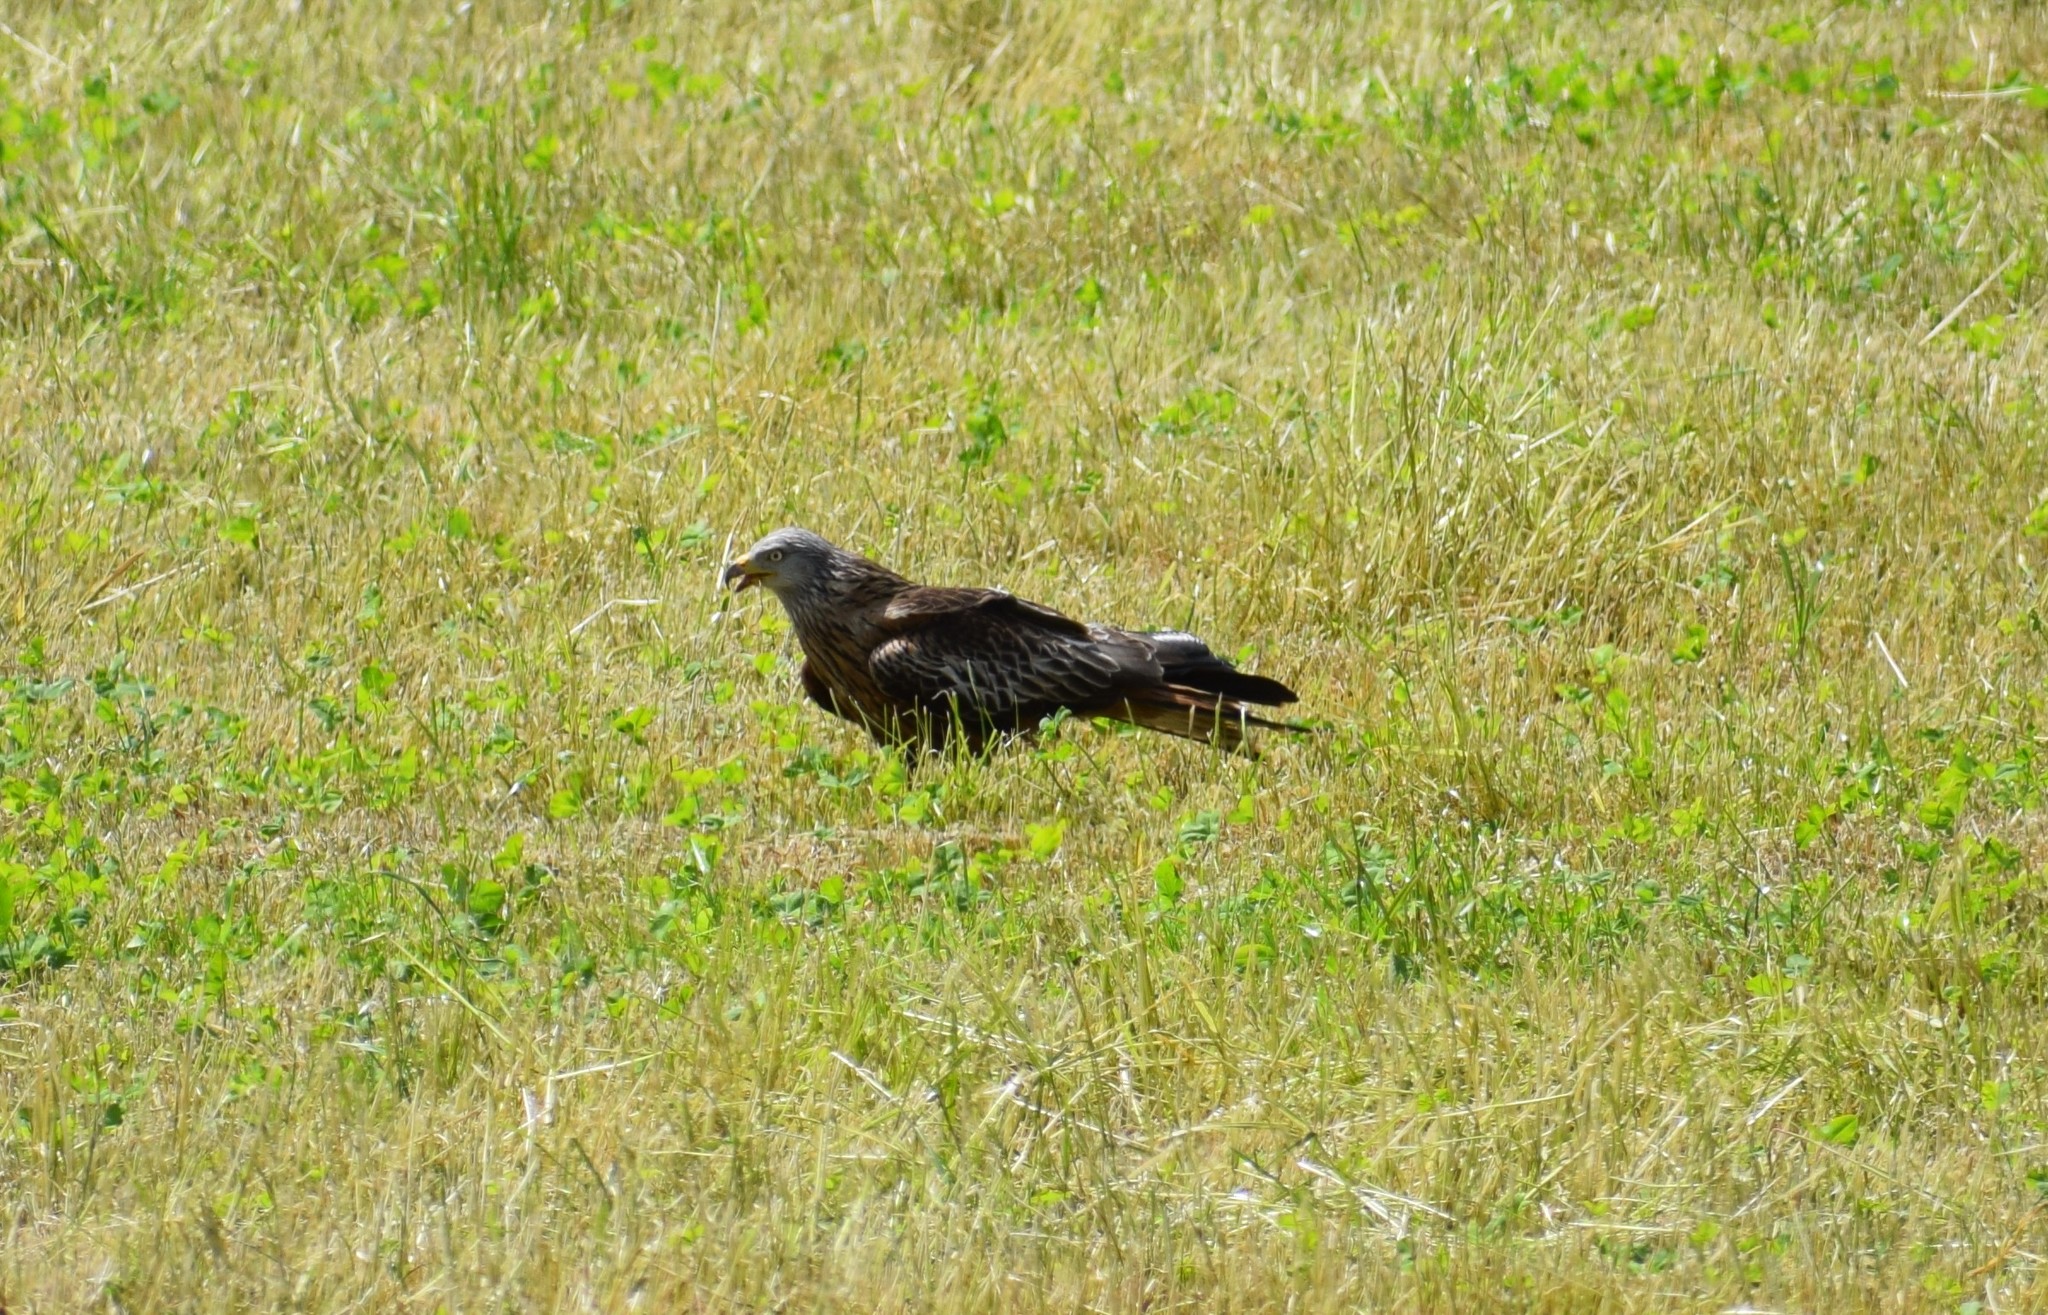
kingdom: Animalia
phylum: Chordata
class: Aves
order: Accipitriformes
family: Accipitridae
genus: Milvus
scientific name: Milvus milvus
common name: Red kite
